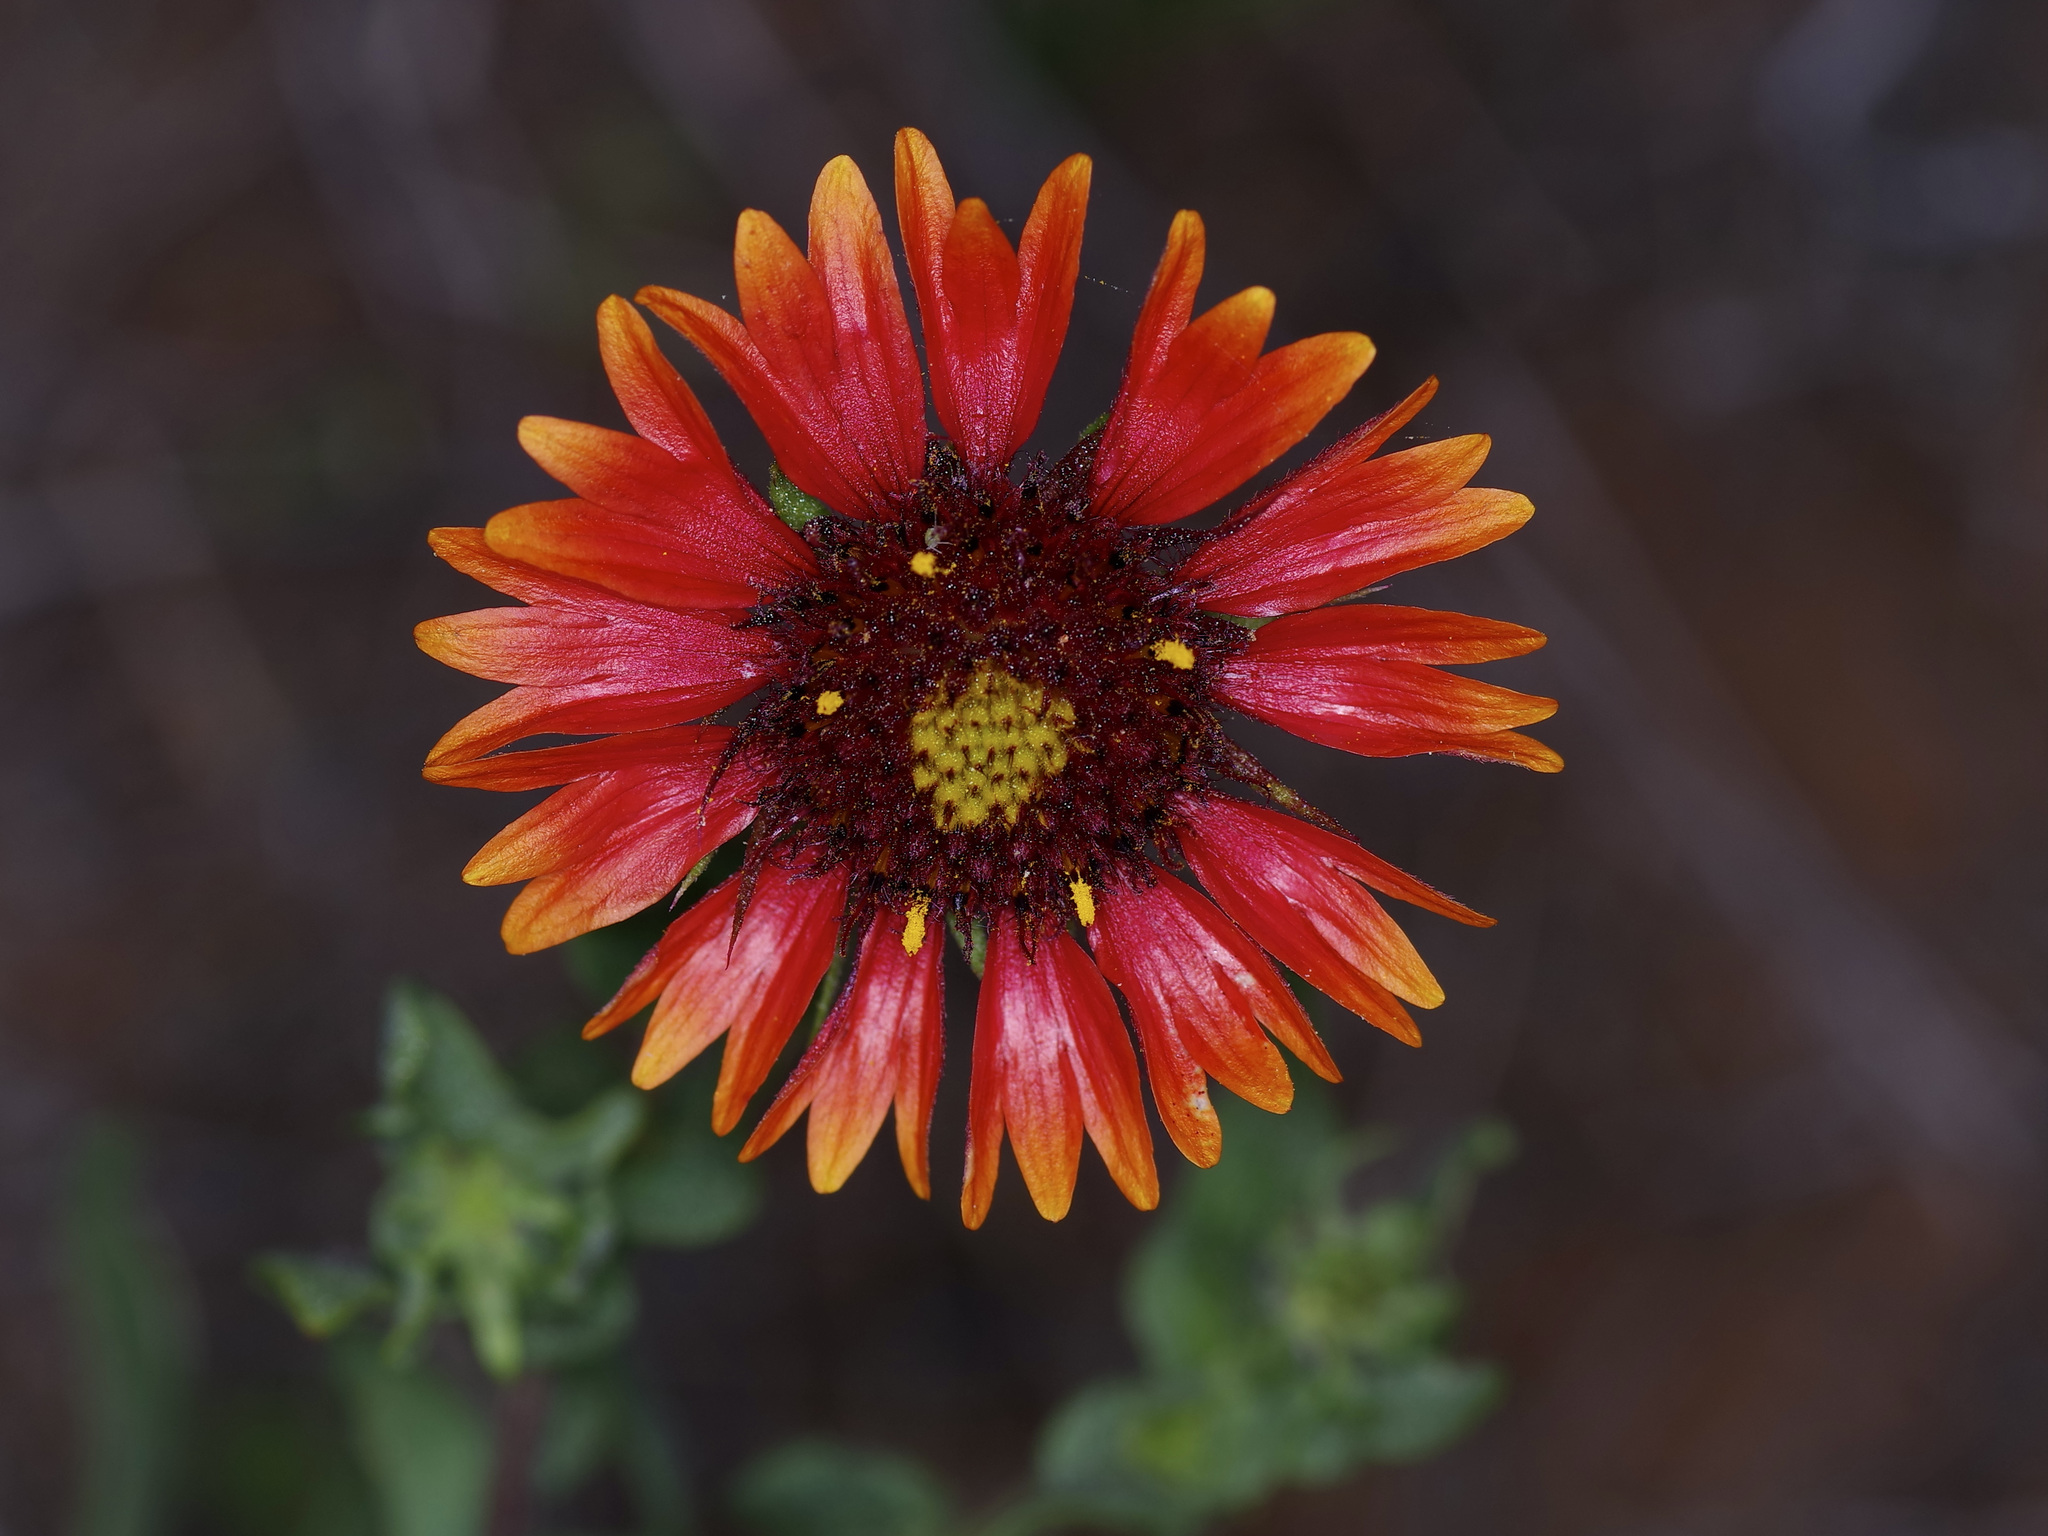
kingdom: Plantae
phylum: Tracheophyta
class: Magnoliopsida
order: Asterales
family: Asteraceae
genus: Gaillardia
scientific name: Gaillardia pulchella
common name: Firewheel
